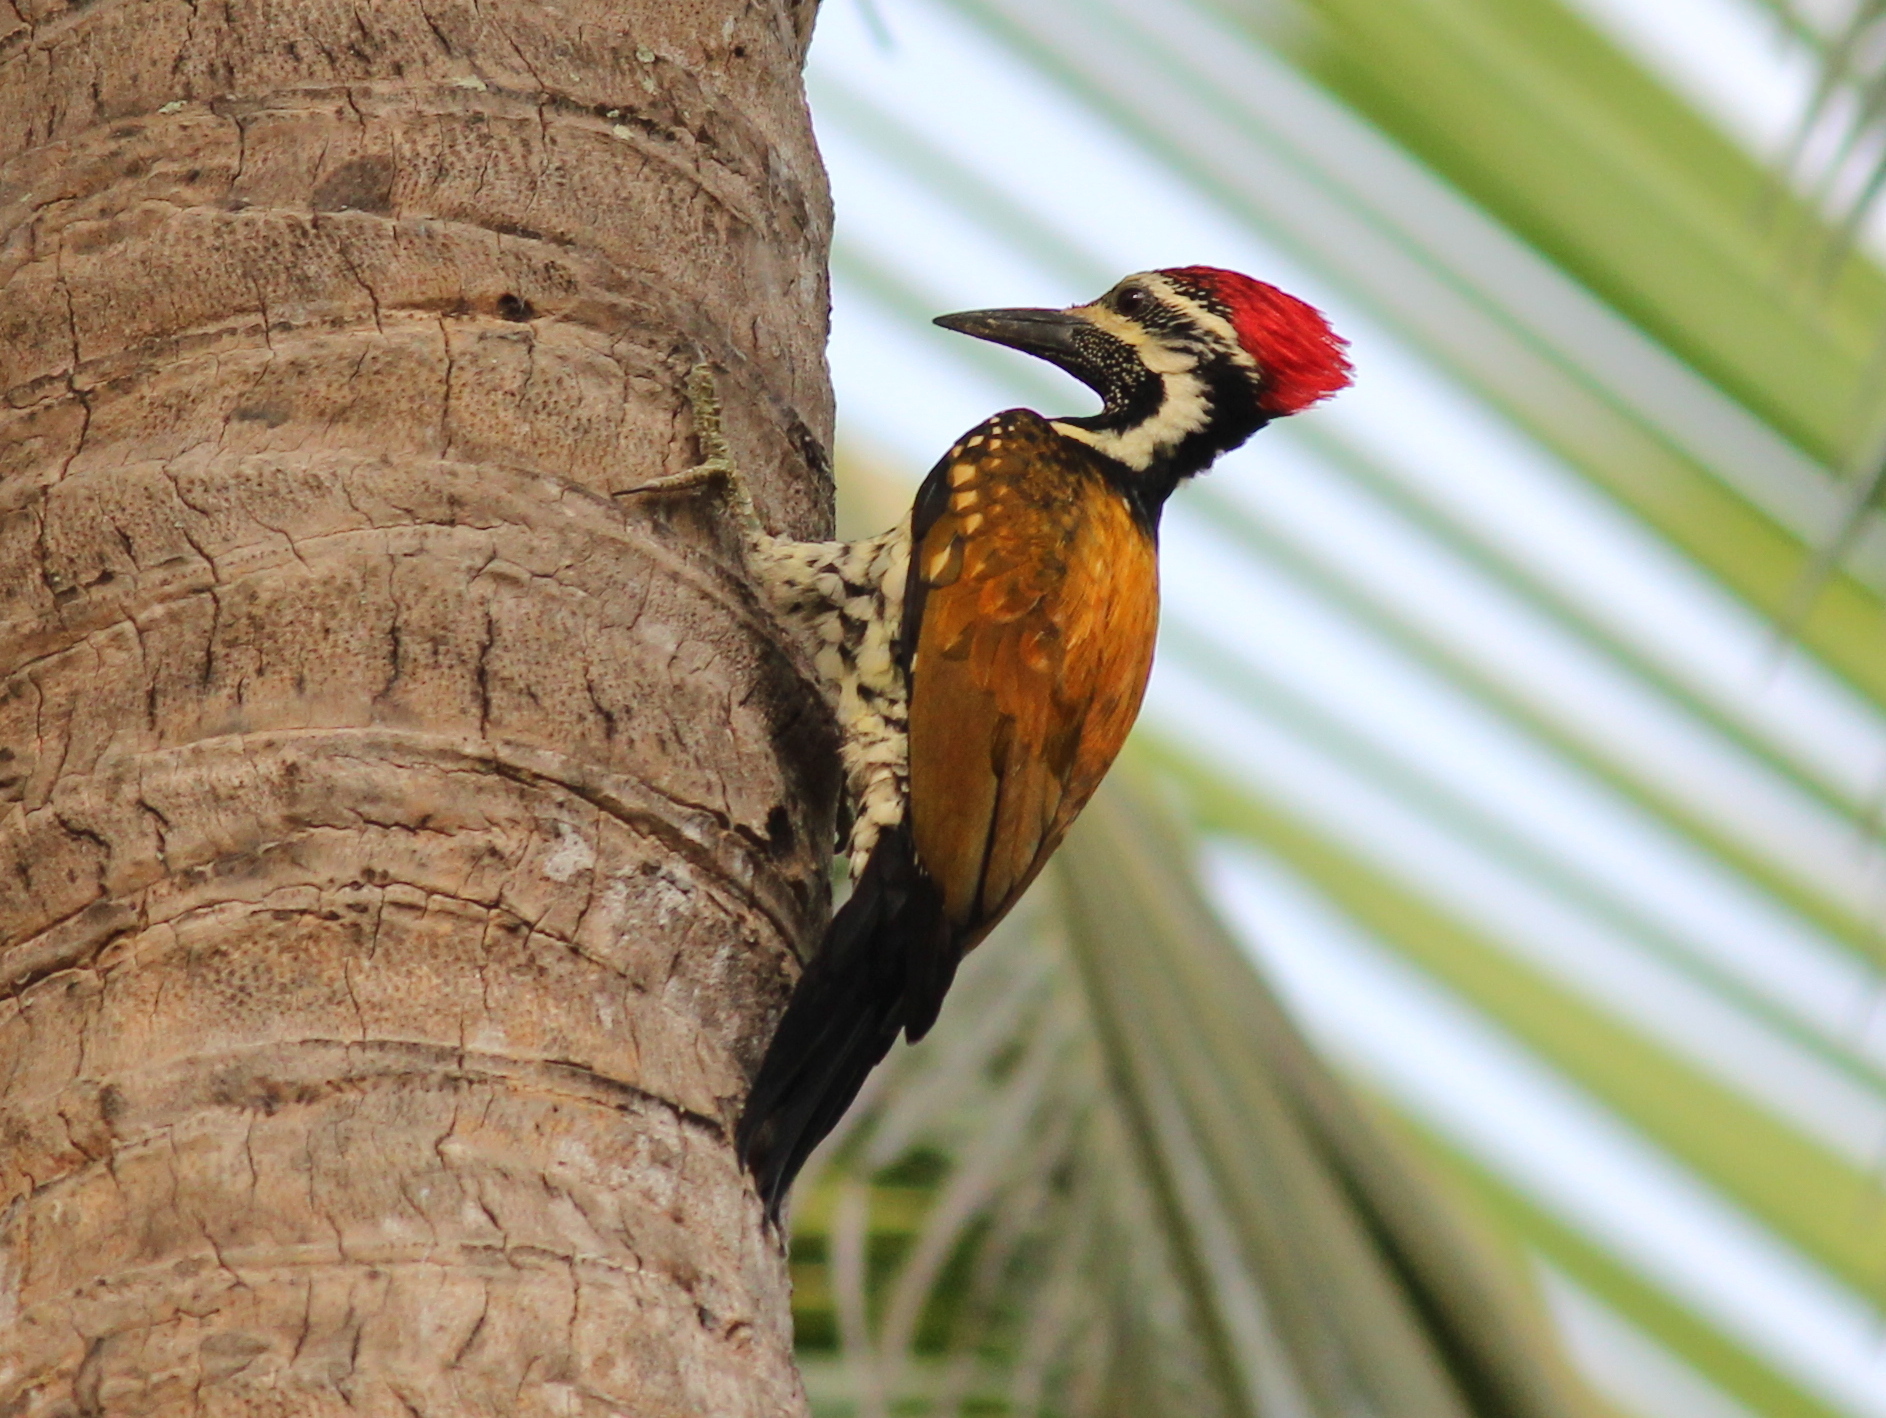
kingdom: Animalia
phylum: Chordata
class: Aves
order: Piciformes
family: Picidae
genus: Dinopium
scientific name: Dinopium benghalense
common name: Black-rumped flameback
